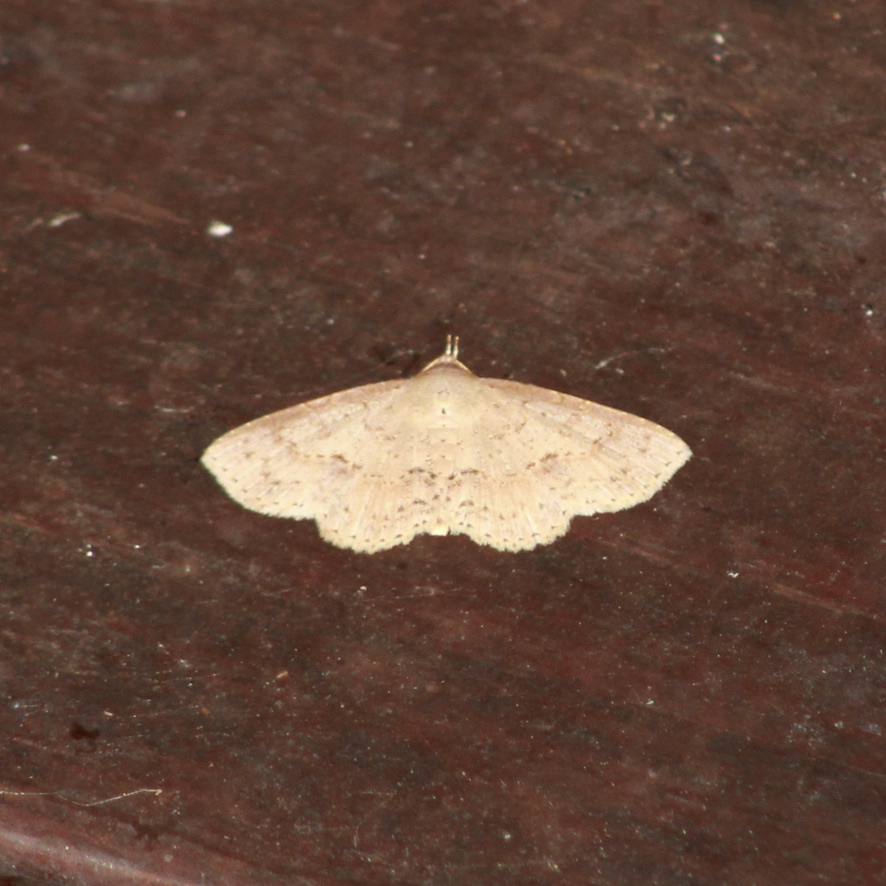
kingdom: Animalia
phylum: Arthropoda
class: Insecta
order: Lepidoptera
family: Erebidae
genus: Antiblemma
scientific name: Antiblemma melanoides
